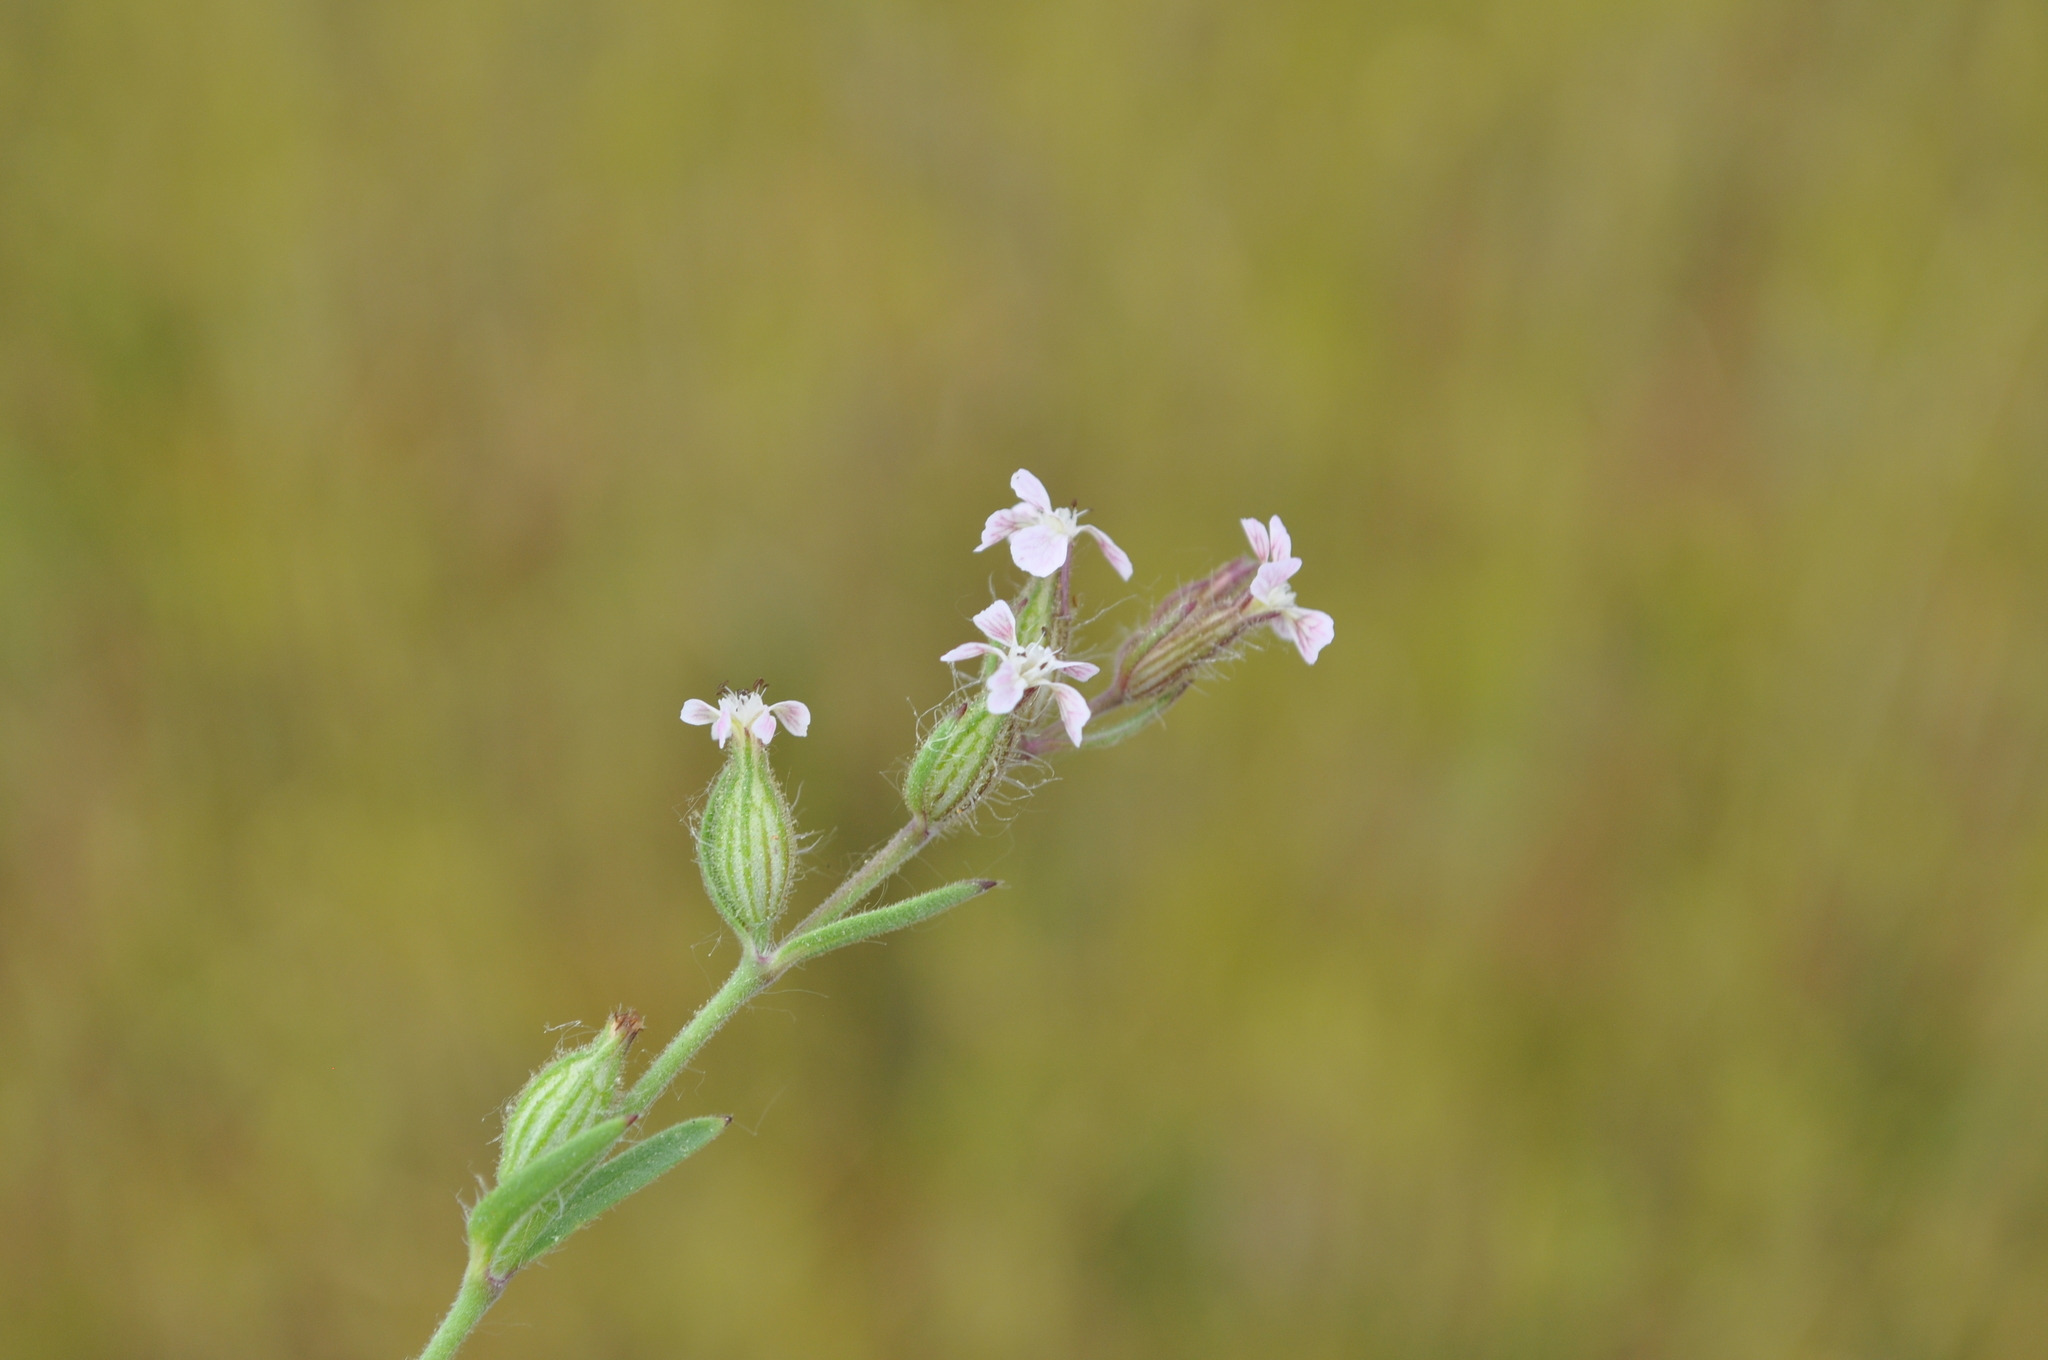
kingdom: Plantae
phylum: Tracheophyta
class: Magnoliopsida
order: Caryophyllales
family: Caryophyllaceae
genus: Silene
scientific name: Silene gallica
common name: Small-flowered catchfly
